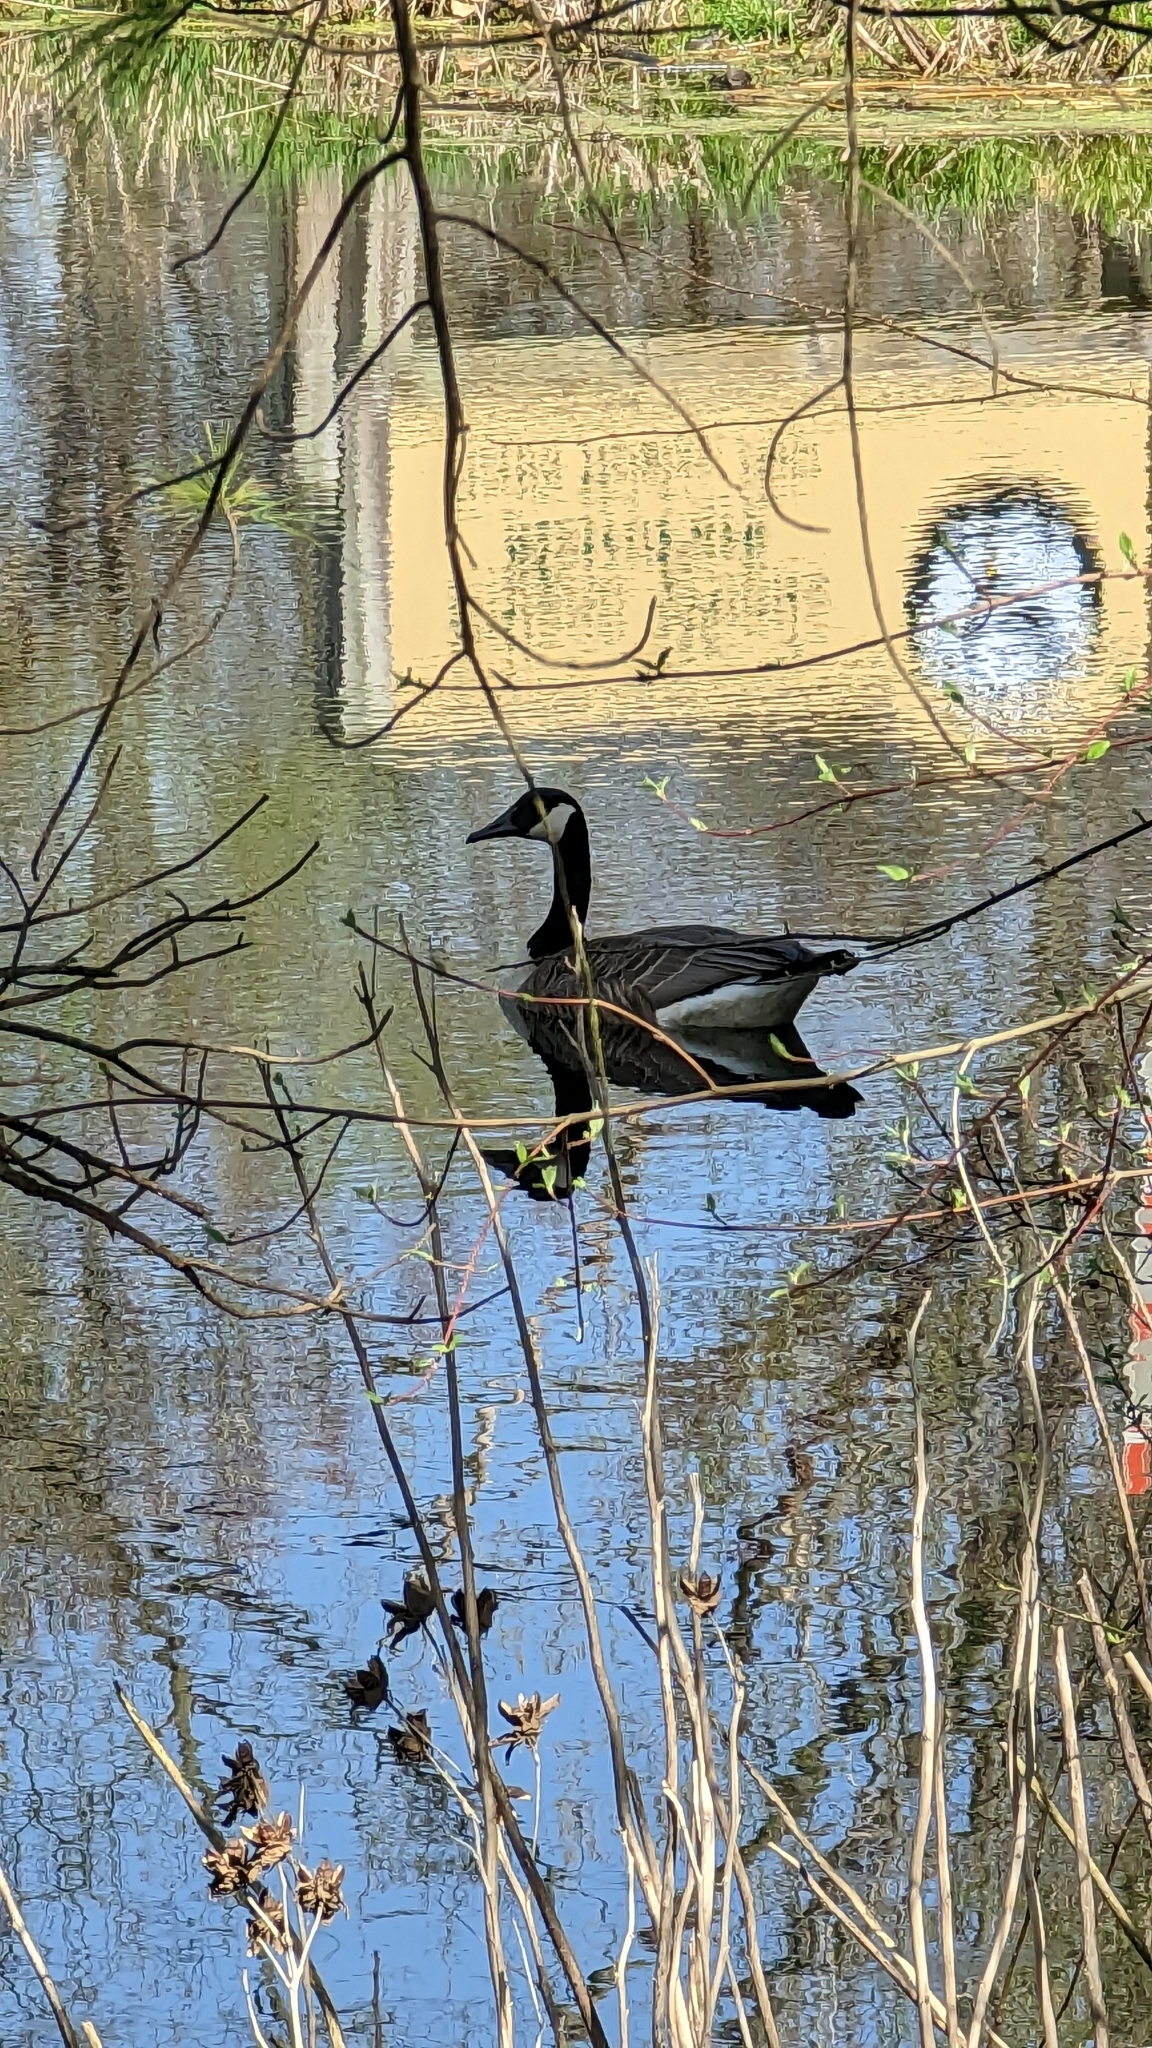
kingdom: Animalia
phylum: Chordata
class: Aves
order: Anseriformes
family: Anatidae
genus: Branta
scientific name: Branta canadensis
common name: Canada goose
